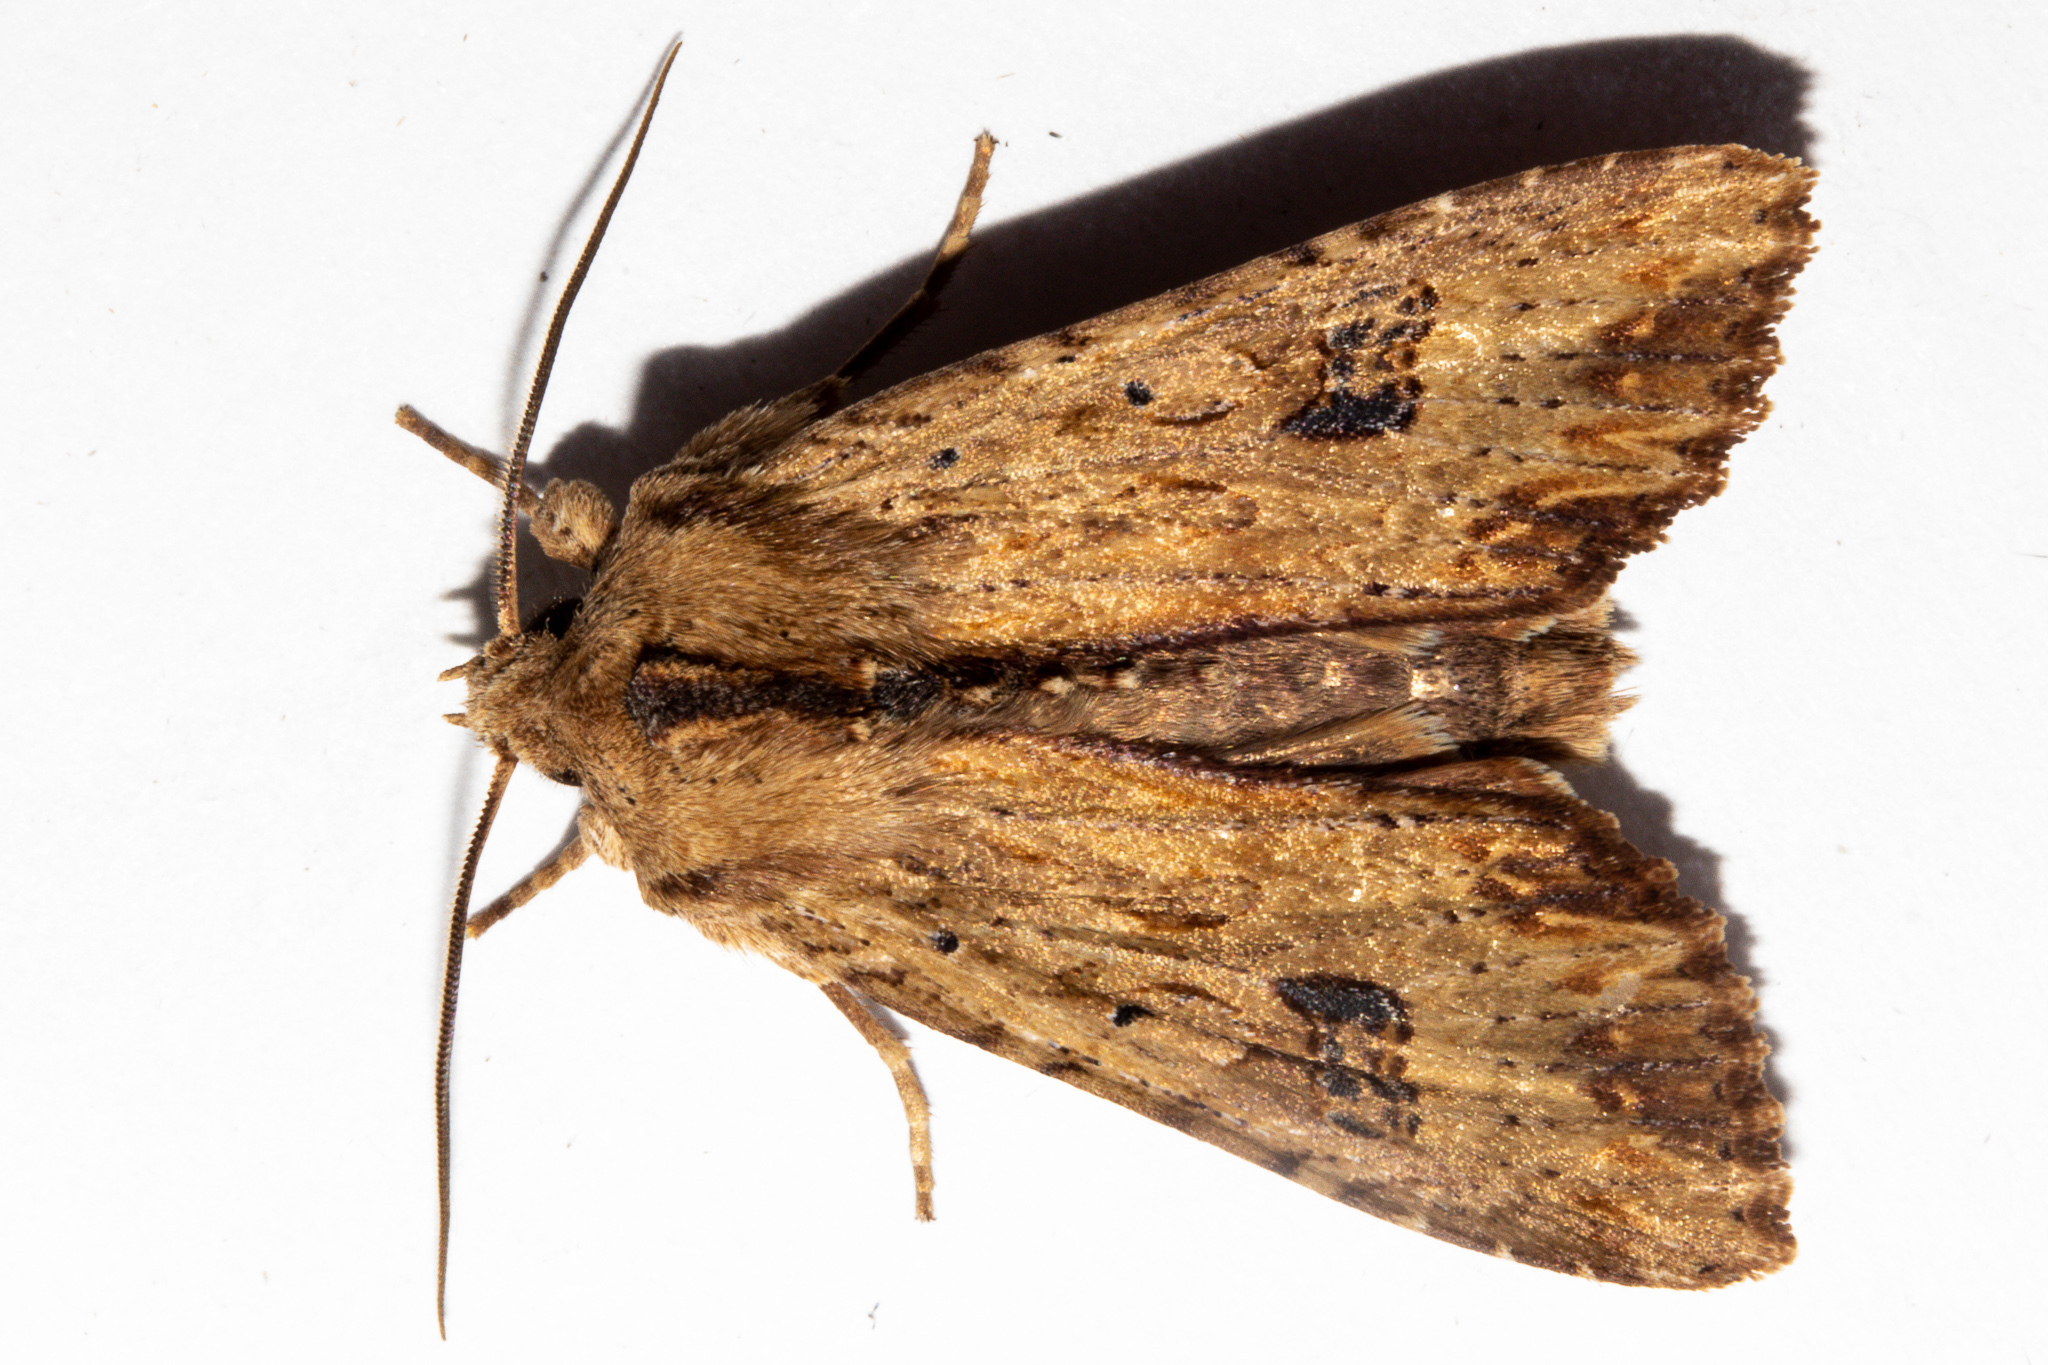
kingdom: Animalia
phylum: Arthropoda
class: Insecta
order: Lepidoptera
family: Noctuidae
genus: Ichneutica
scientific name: Ichneutica
